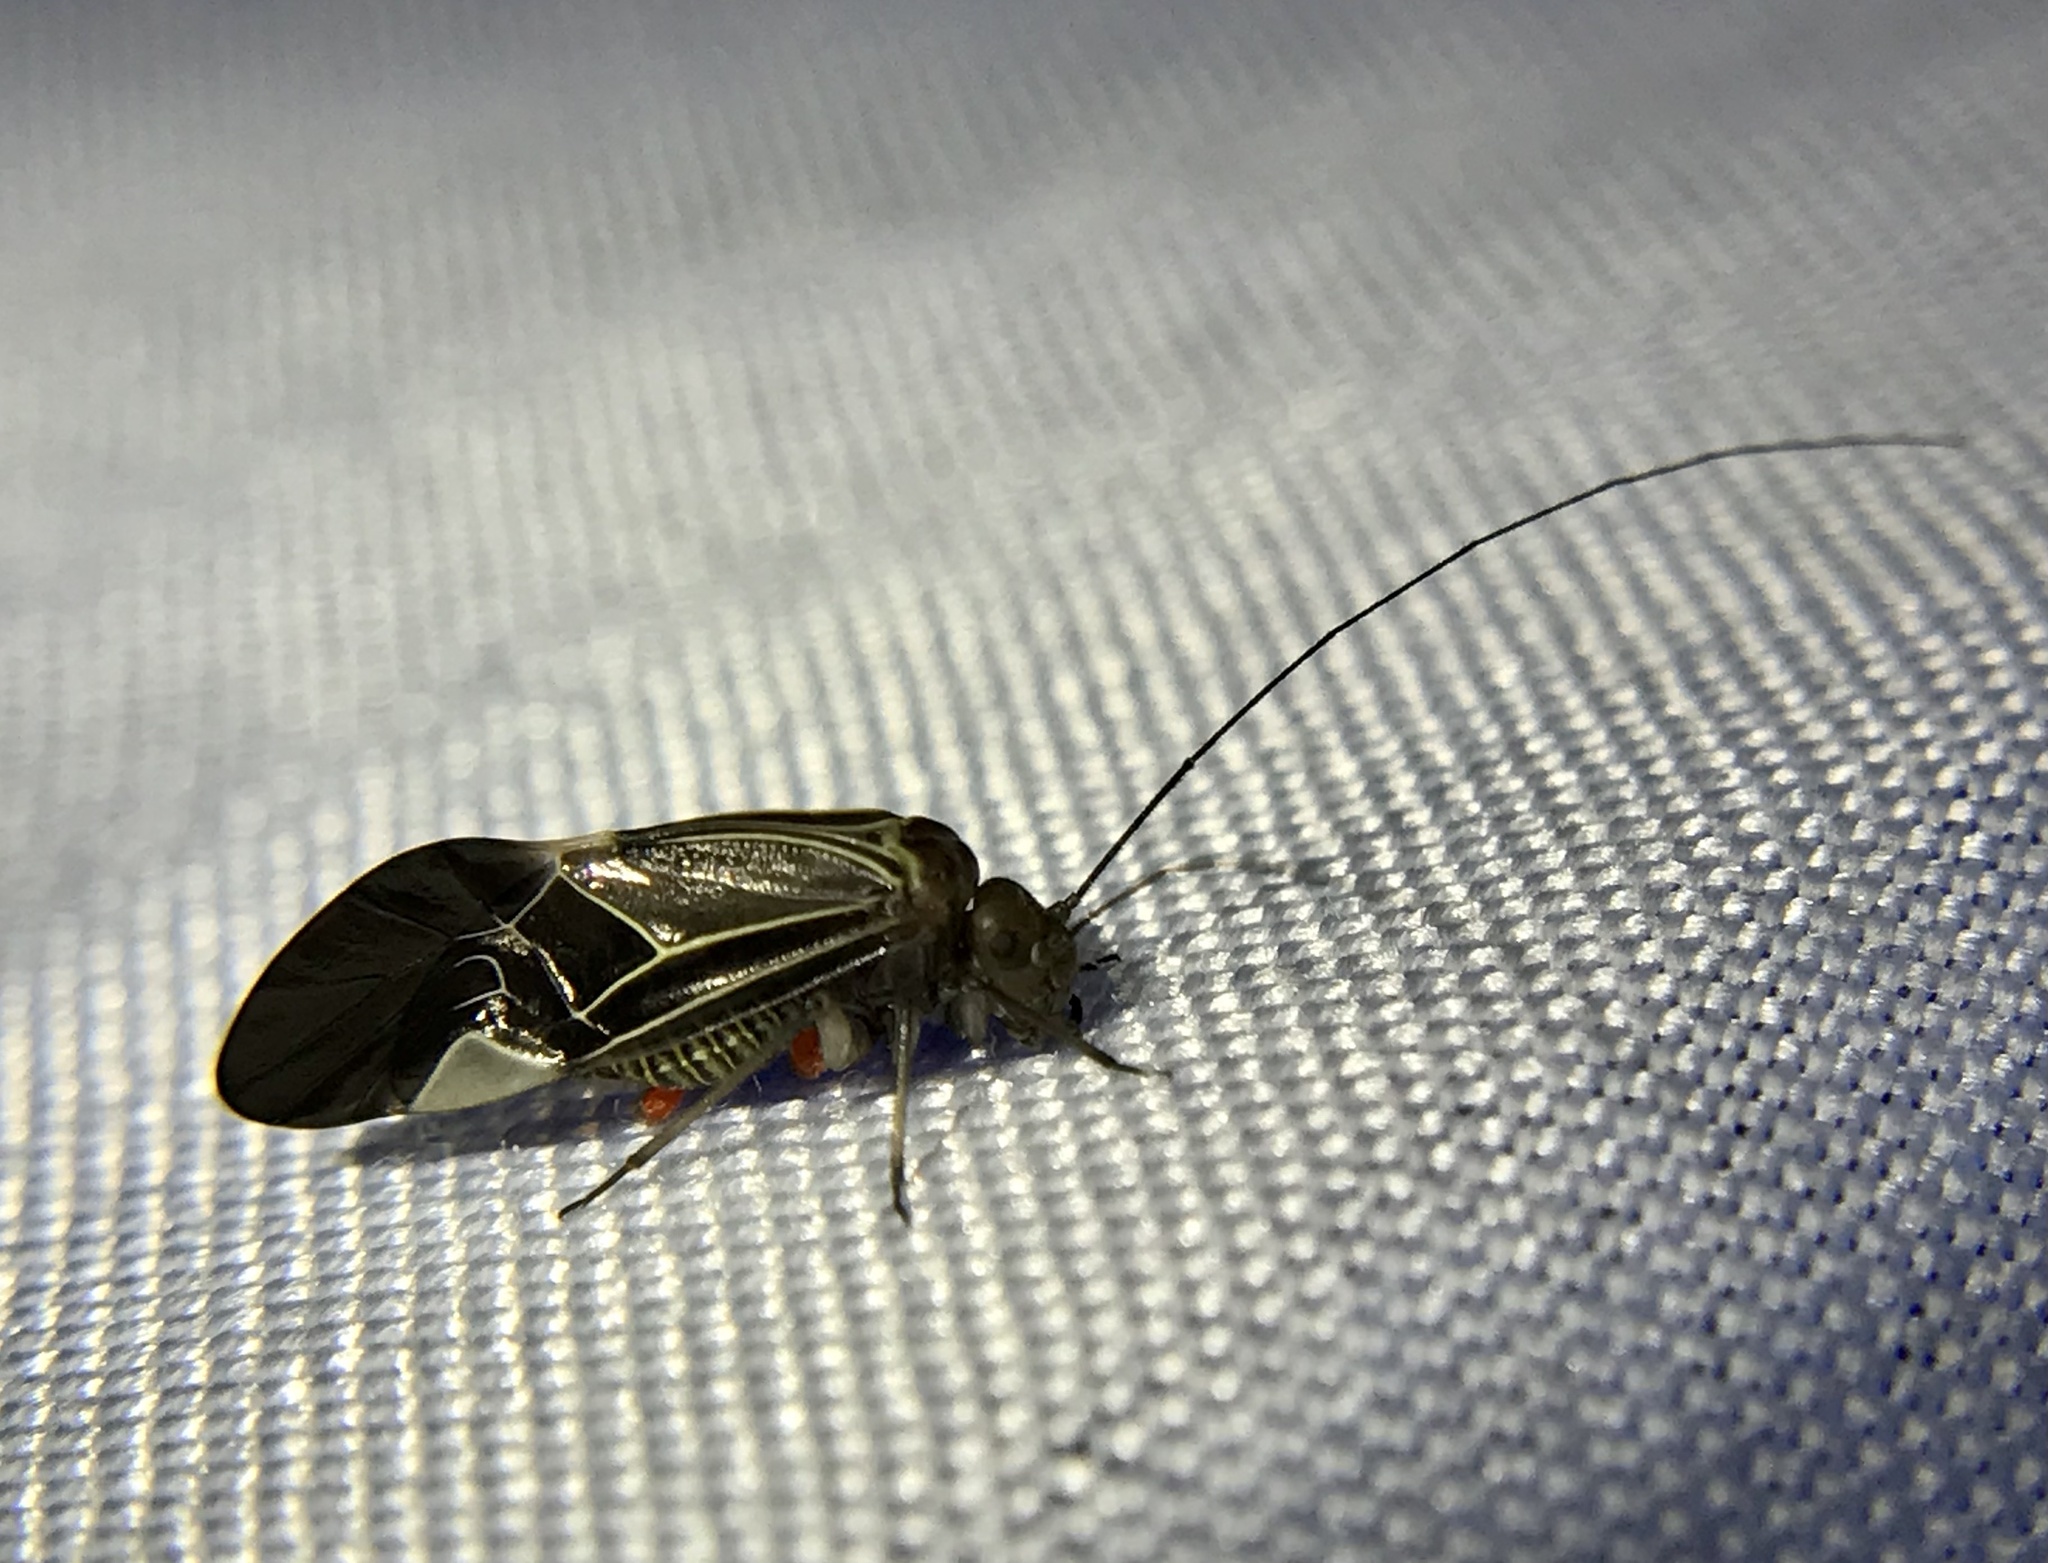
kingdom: Animalia
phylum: Arthropoda
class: Insecta
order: Psocodea
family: Psocidae
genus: Cerastipsocus
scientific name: Cerastipsocus venosus
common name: Tree cattle
